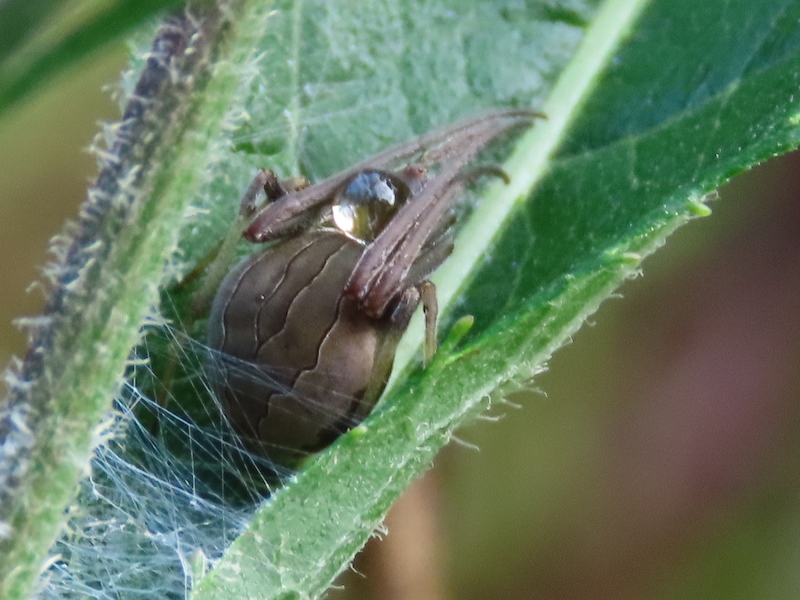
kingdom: Animalia
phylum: Arthropoda
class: Arachnida
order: Araneae
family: Araneidae
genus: Acacesia
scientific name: Acacesia hamata
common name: Orb weavers
